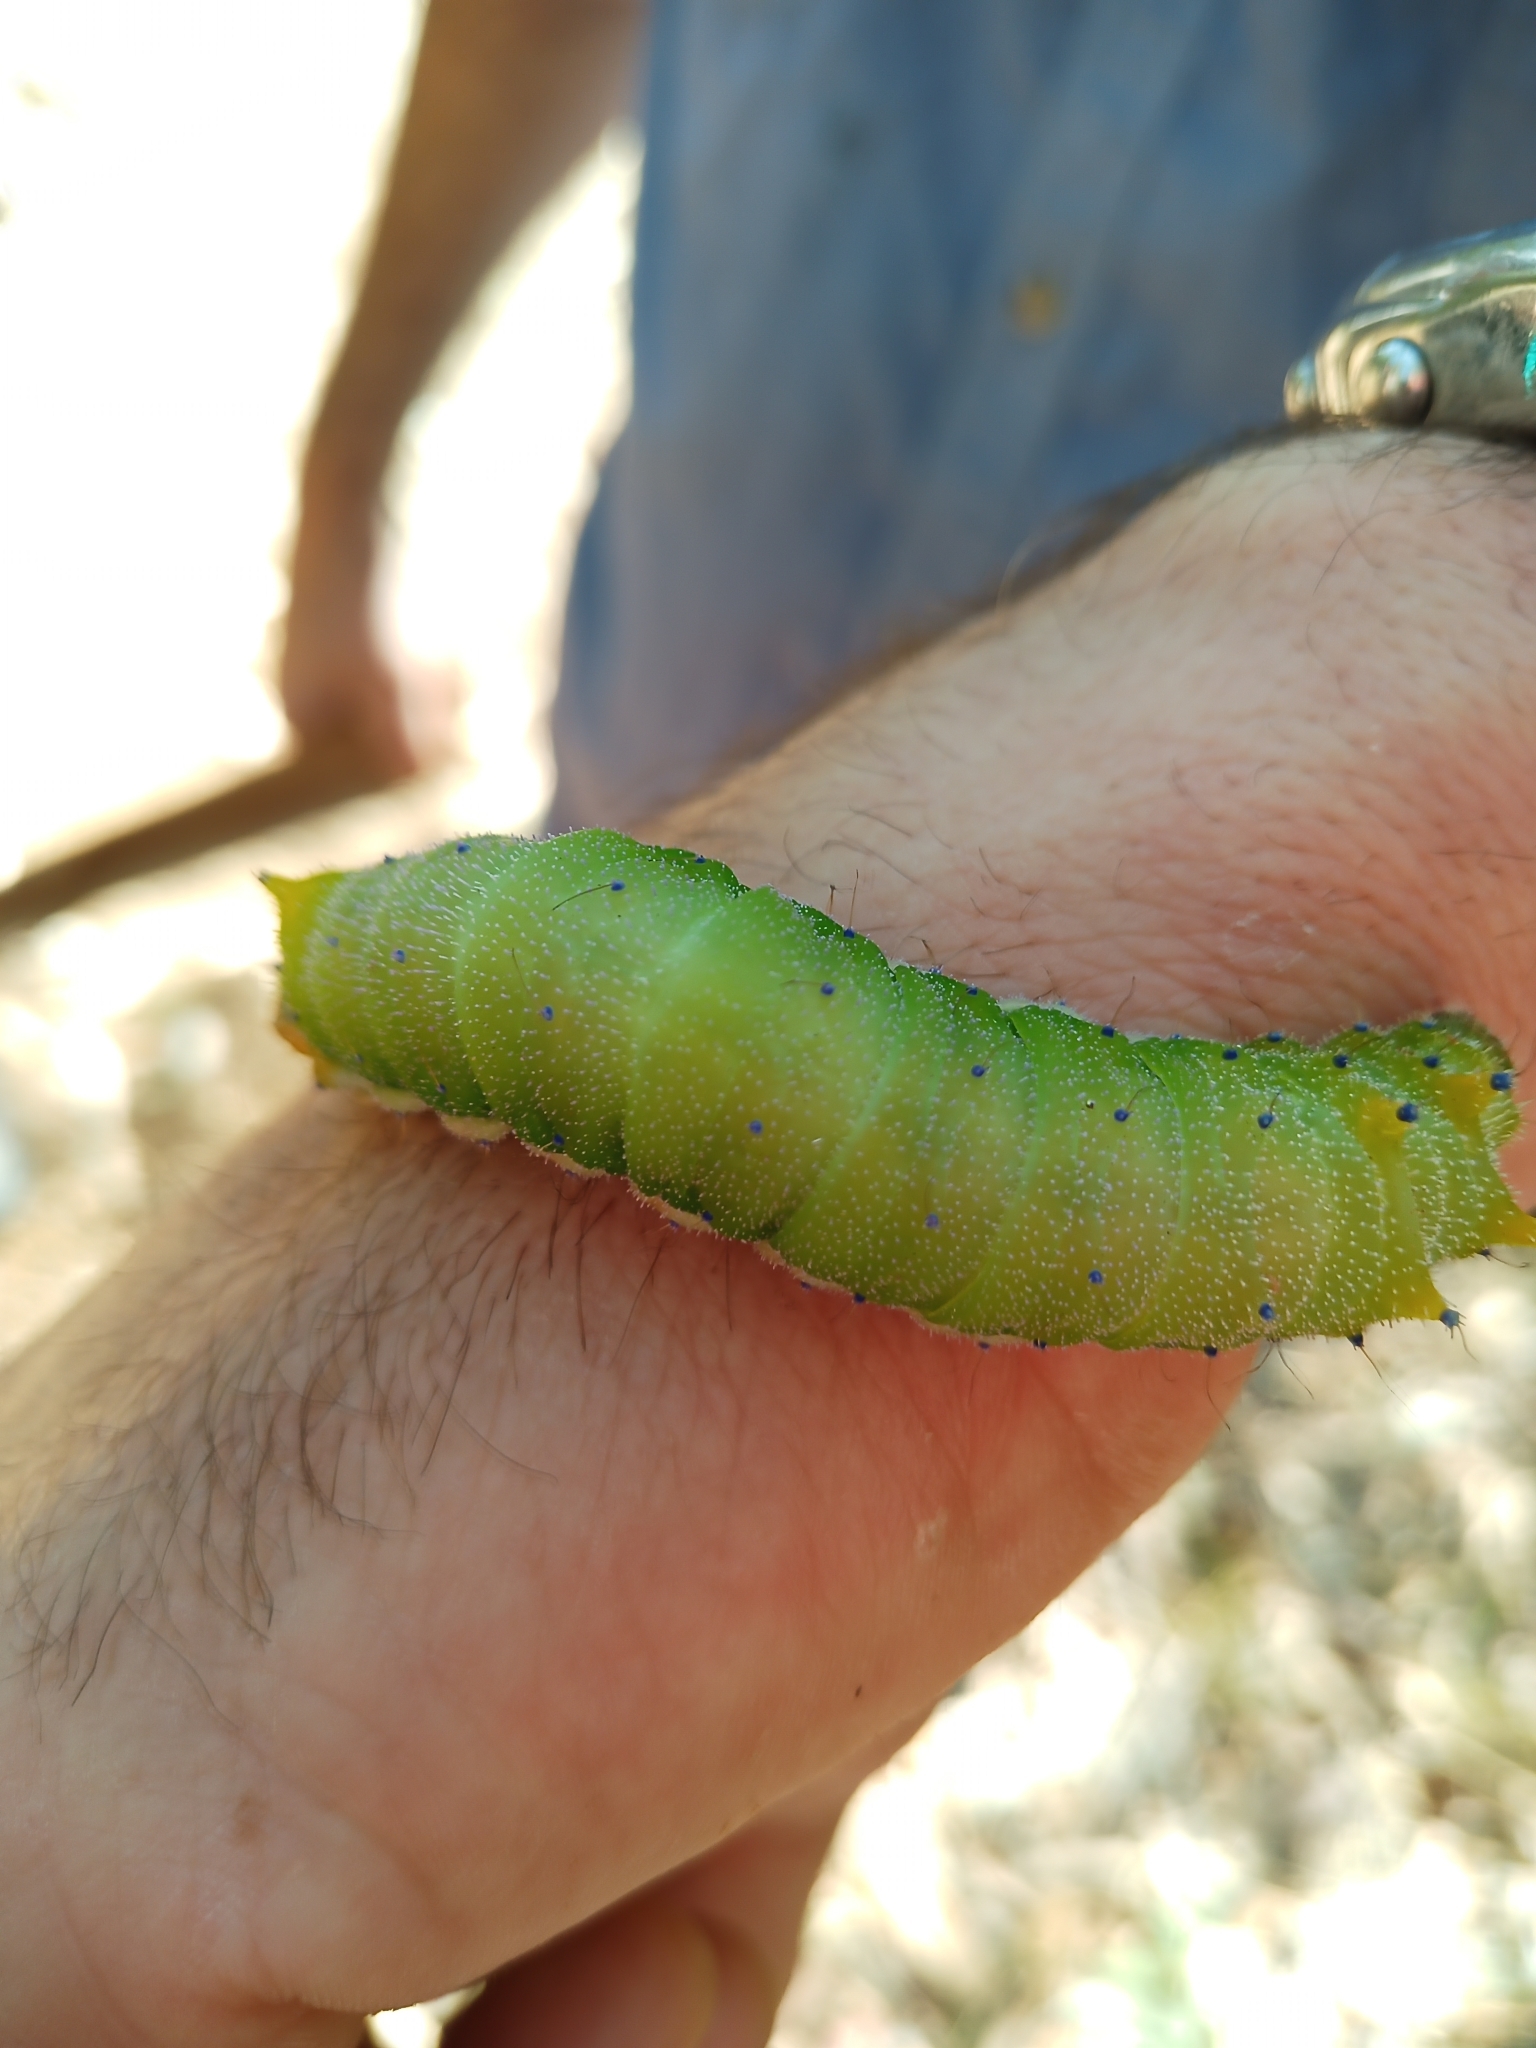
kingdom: Animalia
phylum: Arthropoda
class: Insecta
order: Lepidoptera
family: Saturniidae
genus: Opodiphthera
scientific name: Opodiphthera
